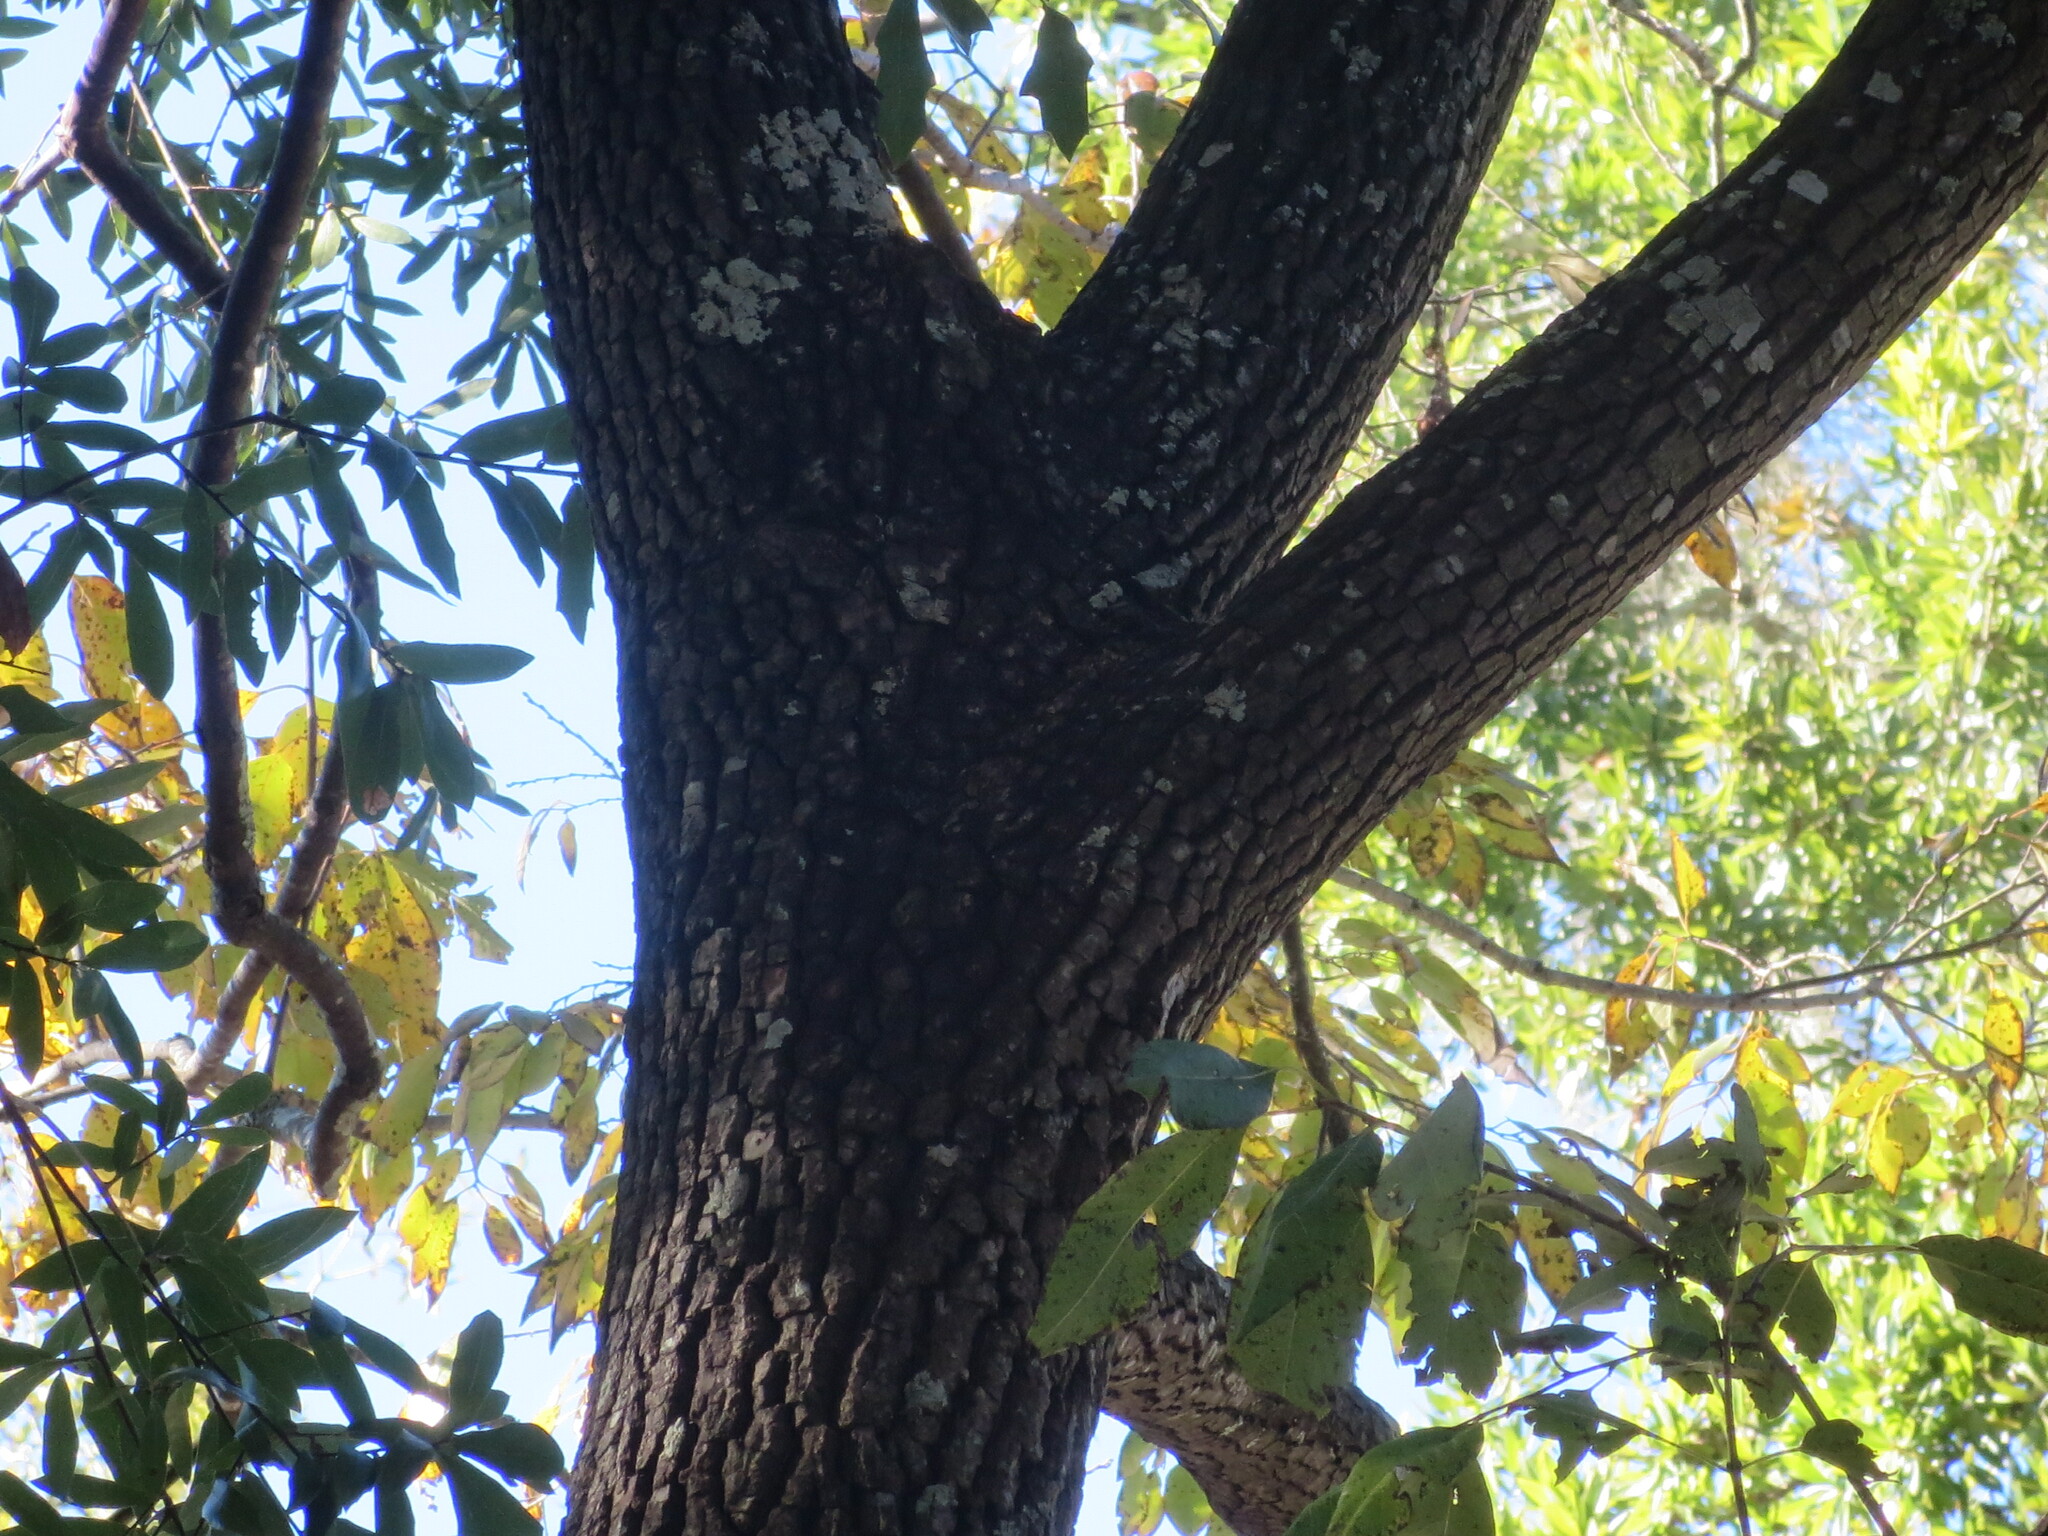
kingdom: Plantae
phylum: Tracheophyta
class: Magnoliopsida
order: Ericales
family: Ebenaceae
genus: Diospyros
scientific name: Diospyros virginiana
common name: Persimmon
